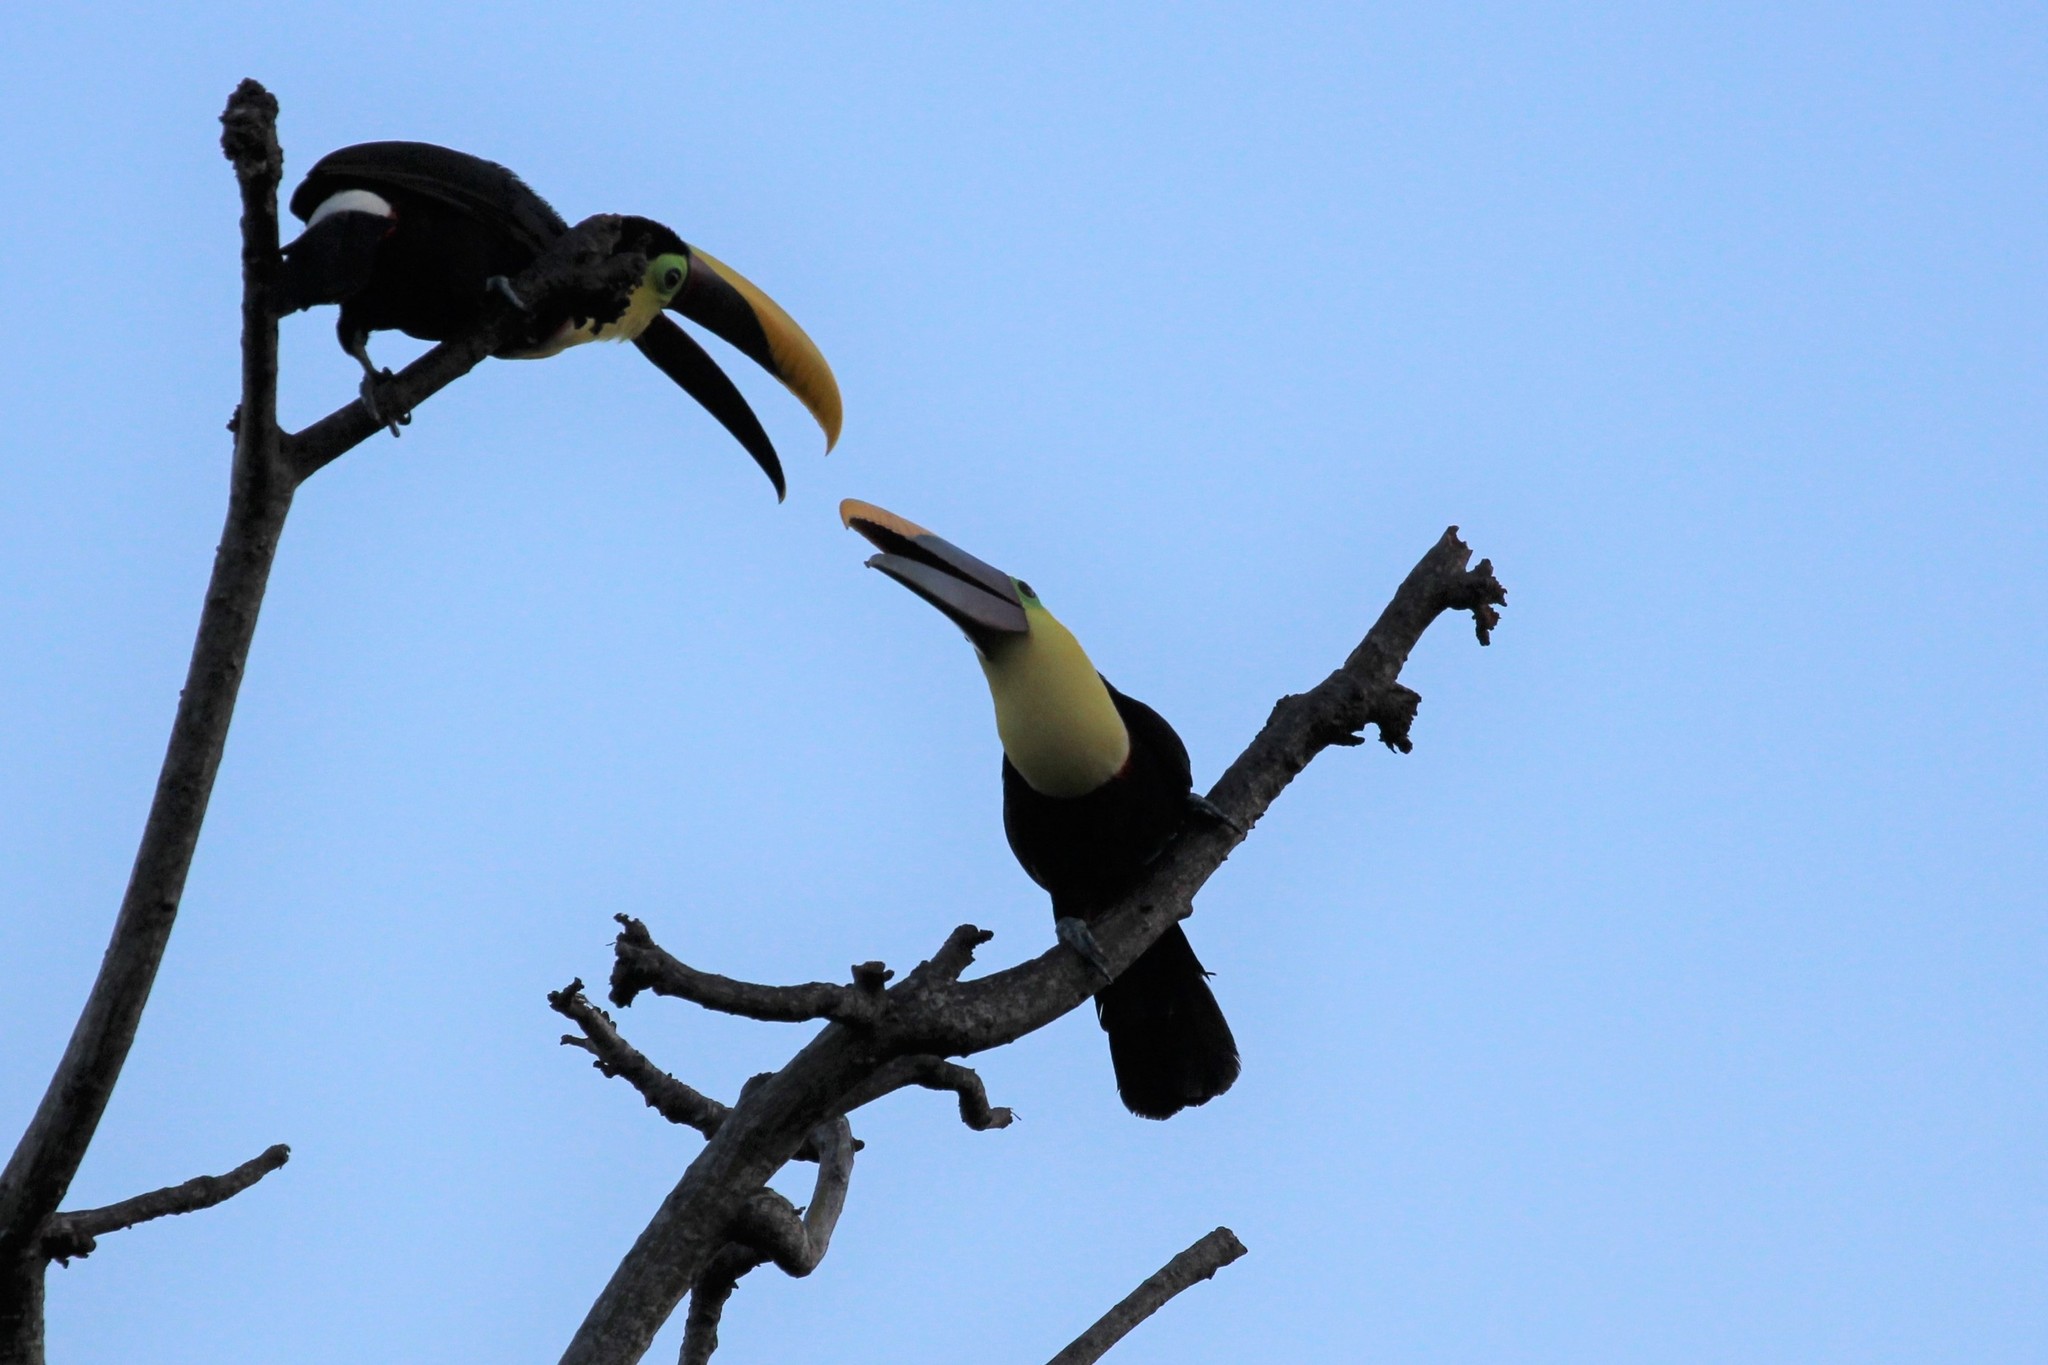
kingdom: Animalia
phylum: Chordata
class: Aves
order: Piciformes
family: Ramphastidae
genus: Ramphastos
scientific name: Ramphastos ambiguus
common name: Yellow-throated toucan
